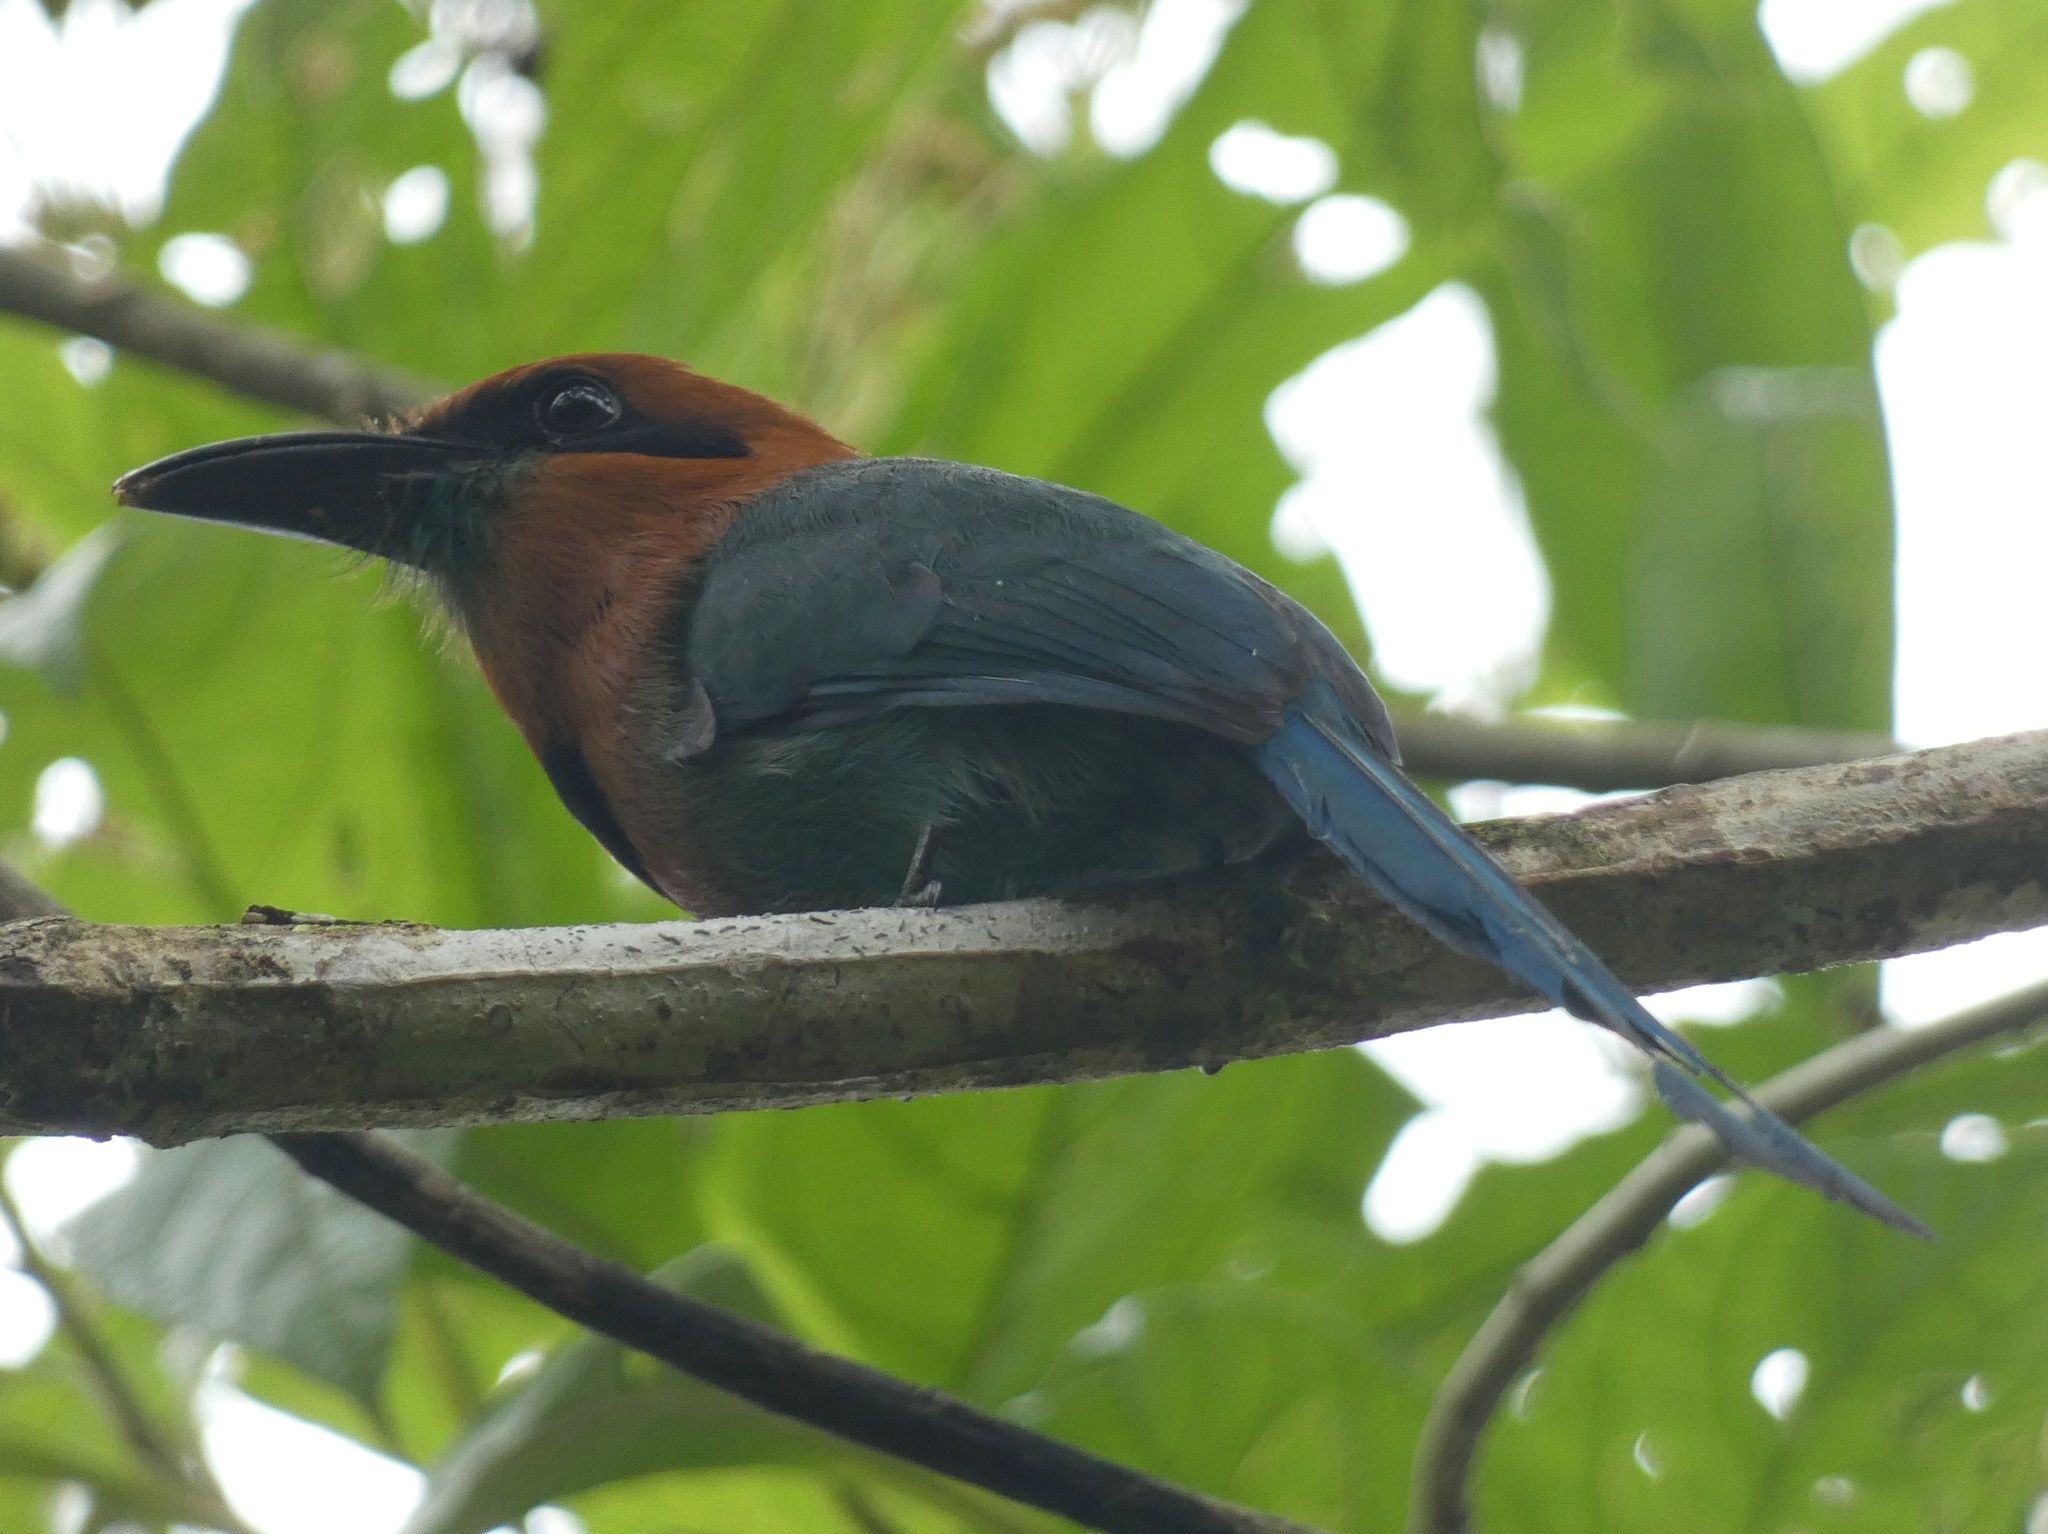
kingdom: Animalia
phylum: Chordata
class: Aves
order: Coraciiformes
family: Momotidae
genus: Electron
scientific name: Electron platyrhynchum
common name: Broad-billed motmot
